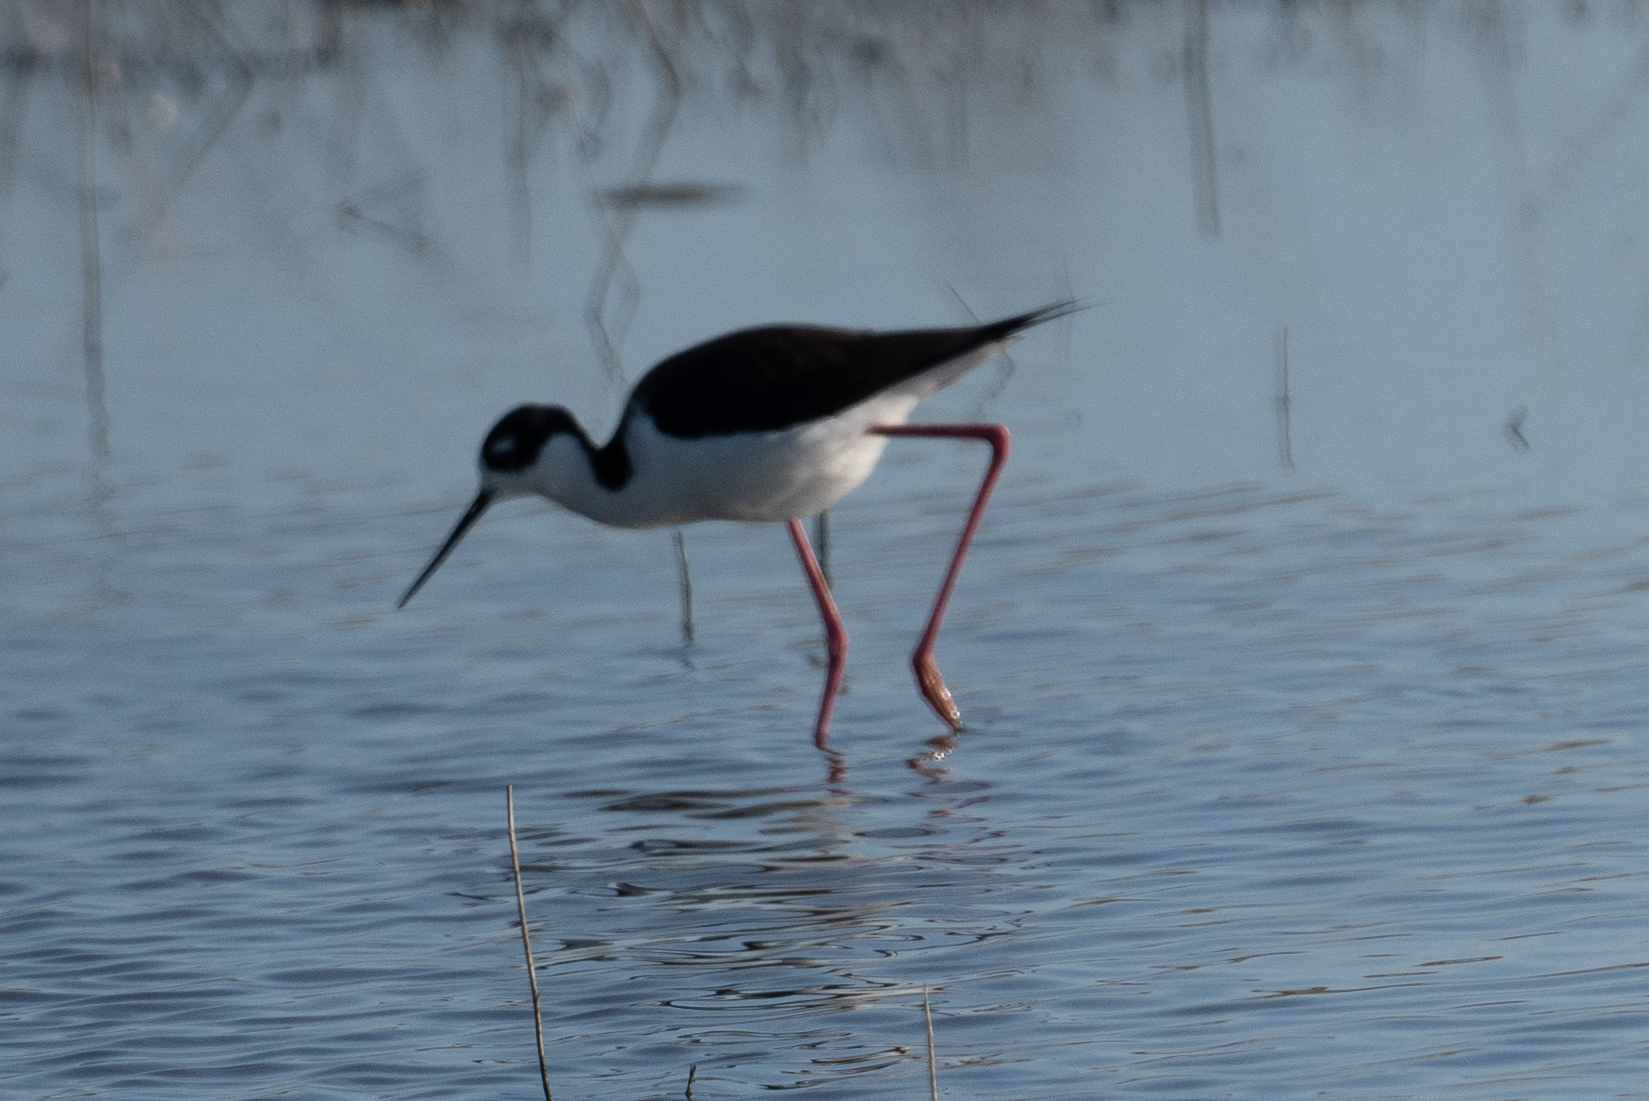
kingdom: Animalia
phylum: Chordata
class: Aves
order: Charadriiformes
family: Recurvirostridae
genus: Himantopus
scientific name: Himantopus mexicanus
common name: Black-necked stilt
